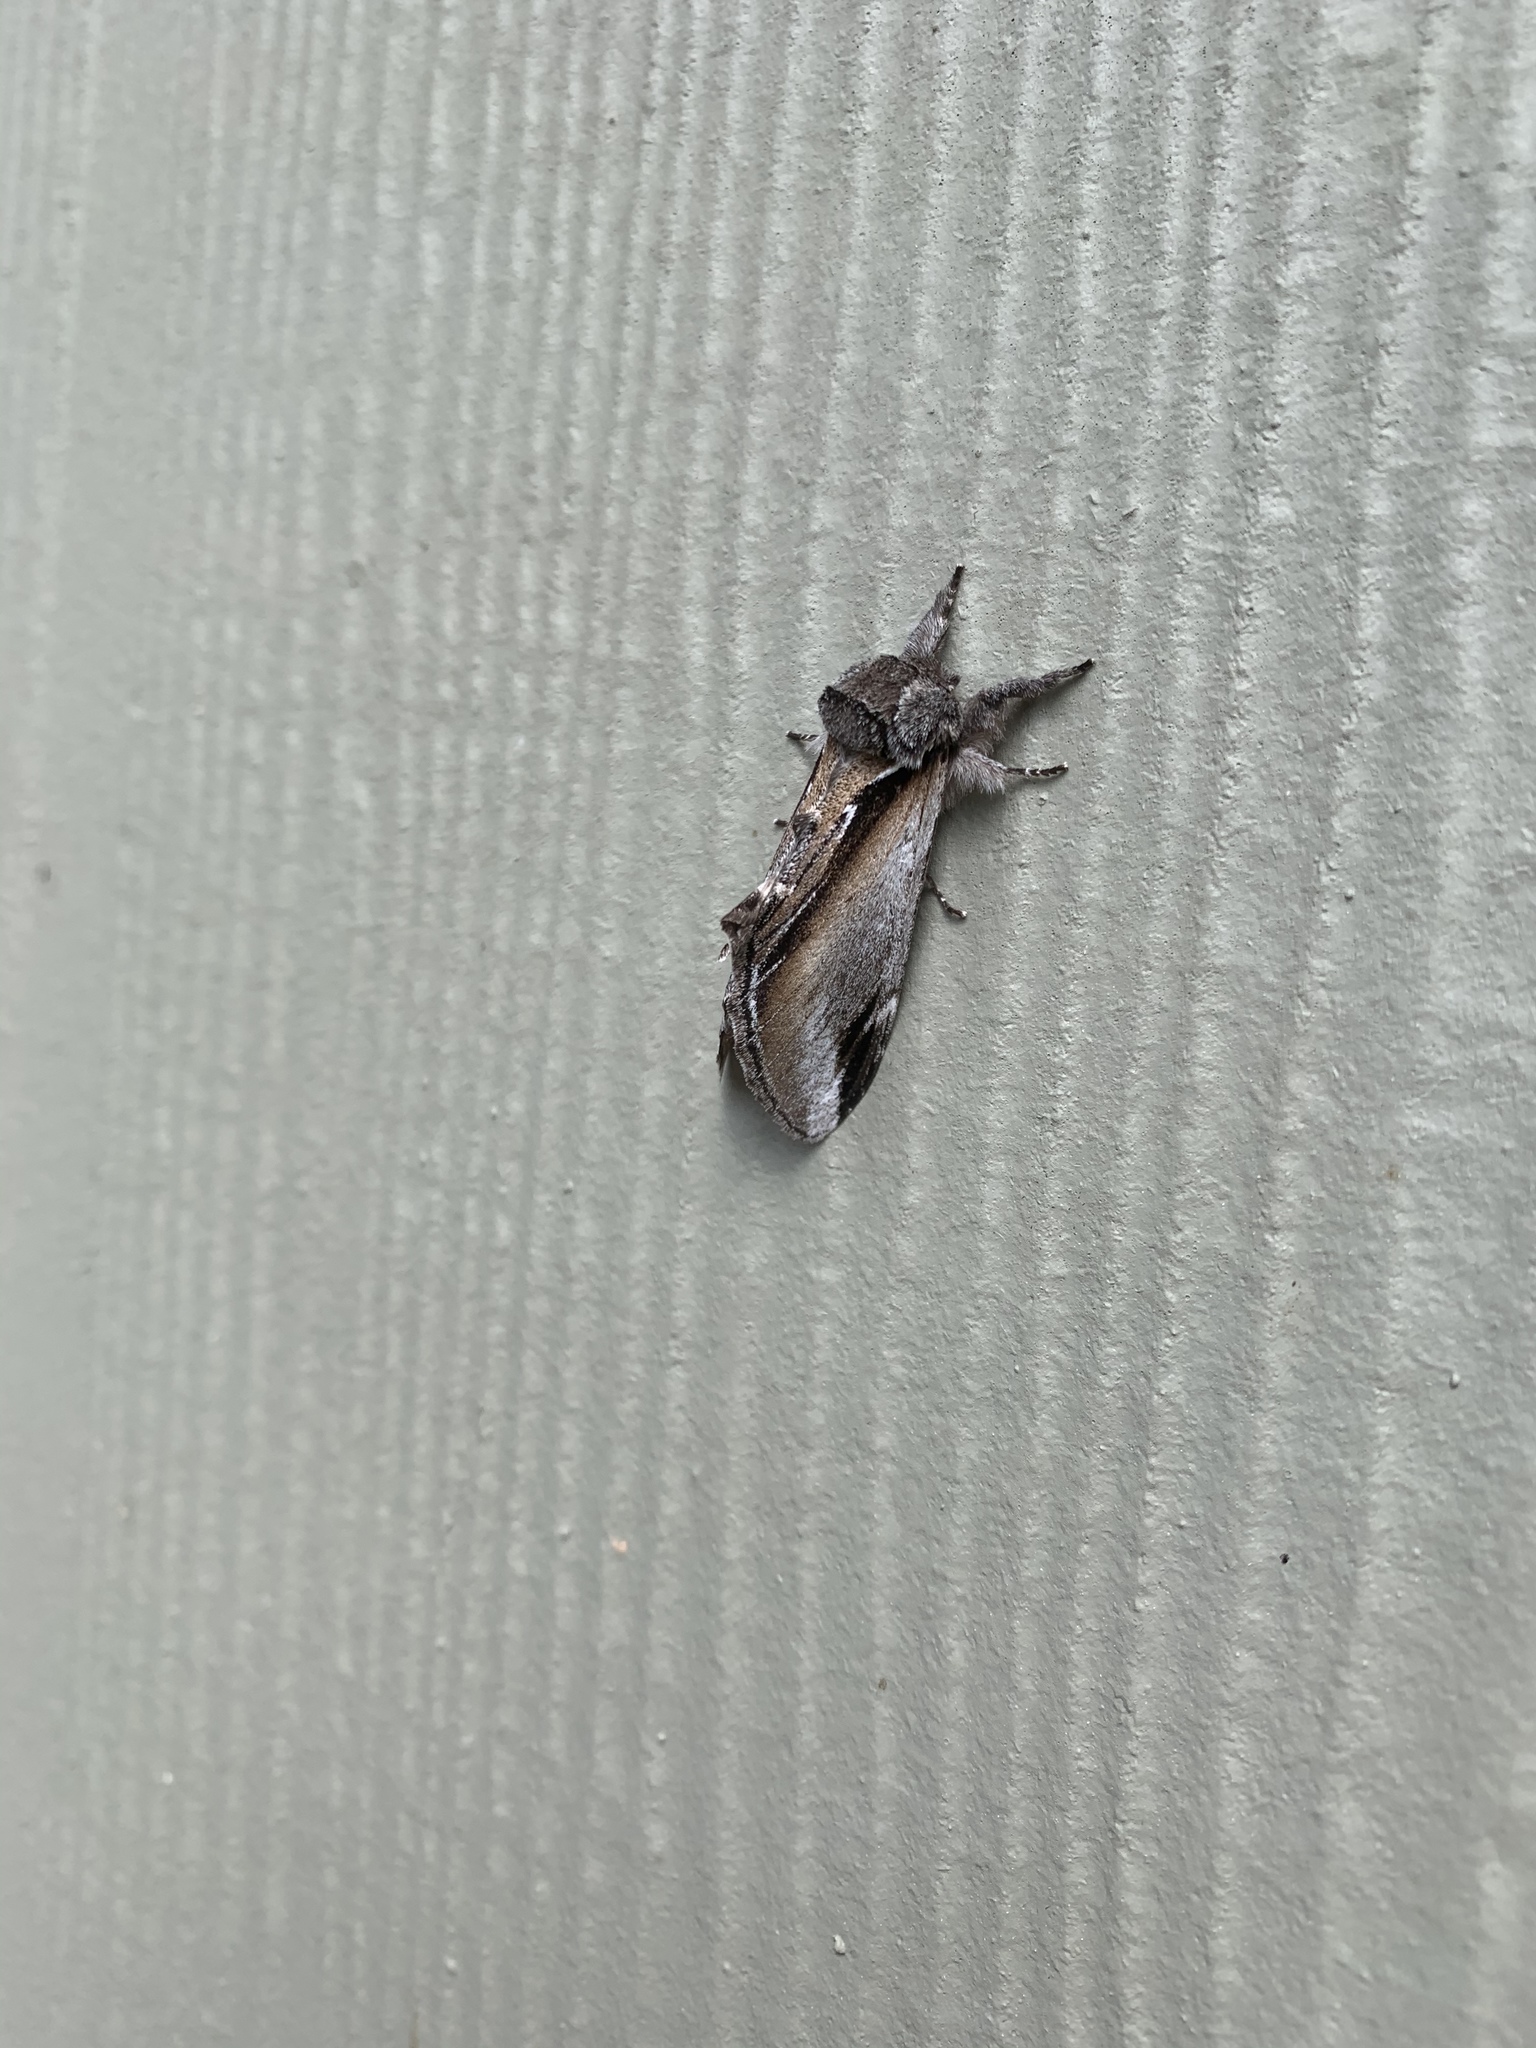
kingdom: Animalia
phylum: Arthropoda
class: Insecta
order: Lepidoptera
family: Notodontidae
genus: Pheosia
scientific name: Pheosia rimosa
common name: Black-rimmed prominent
